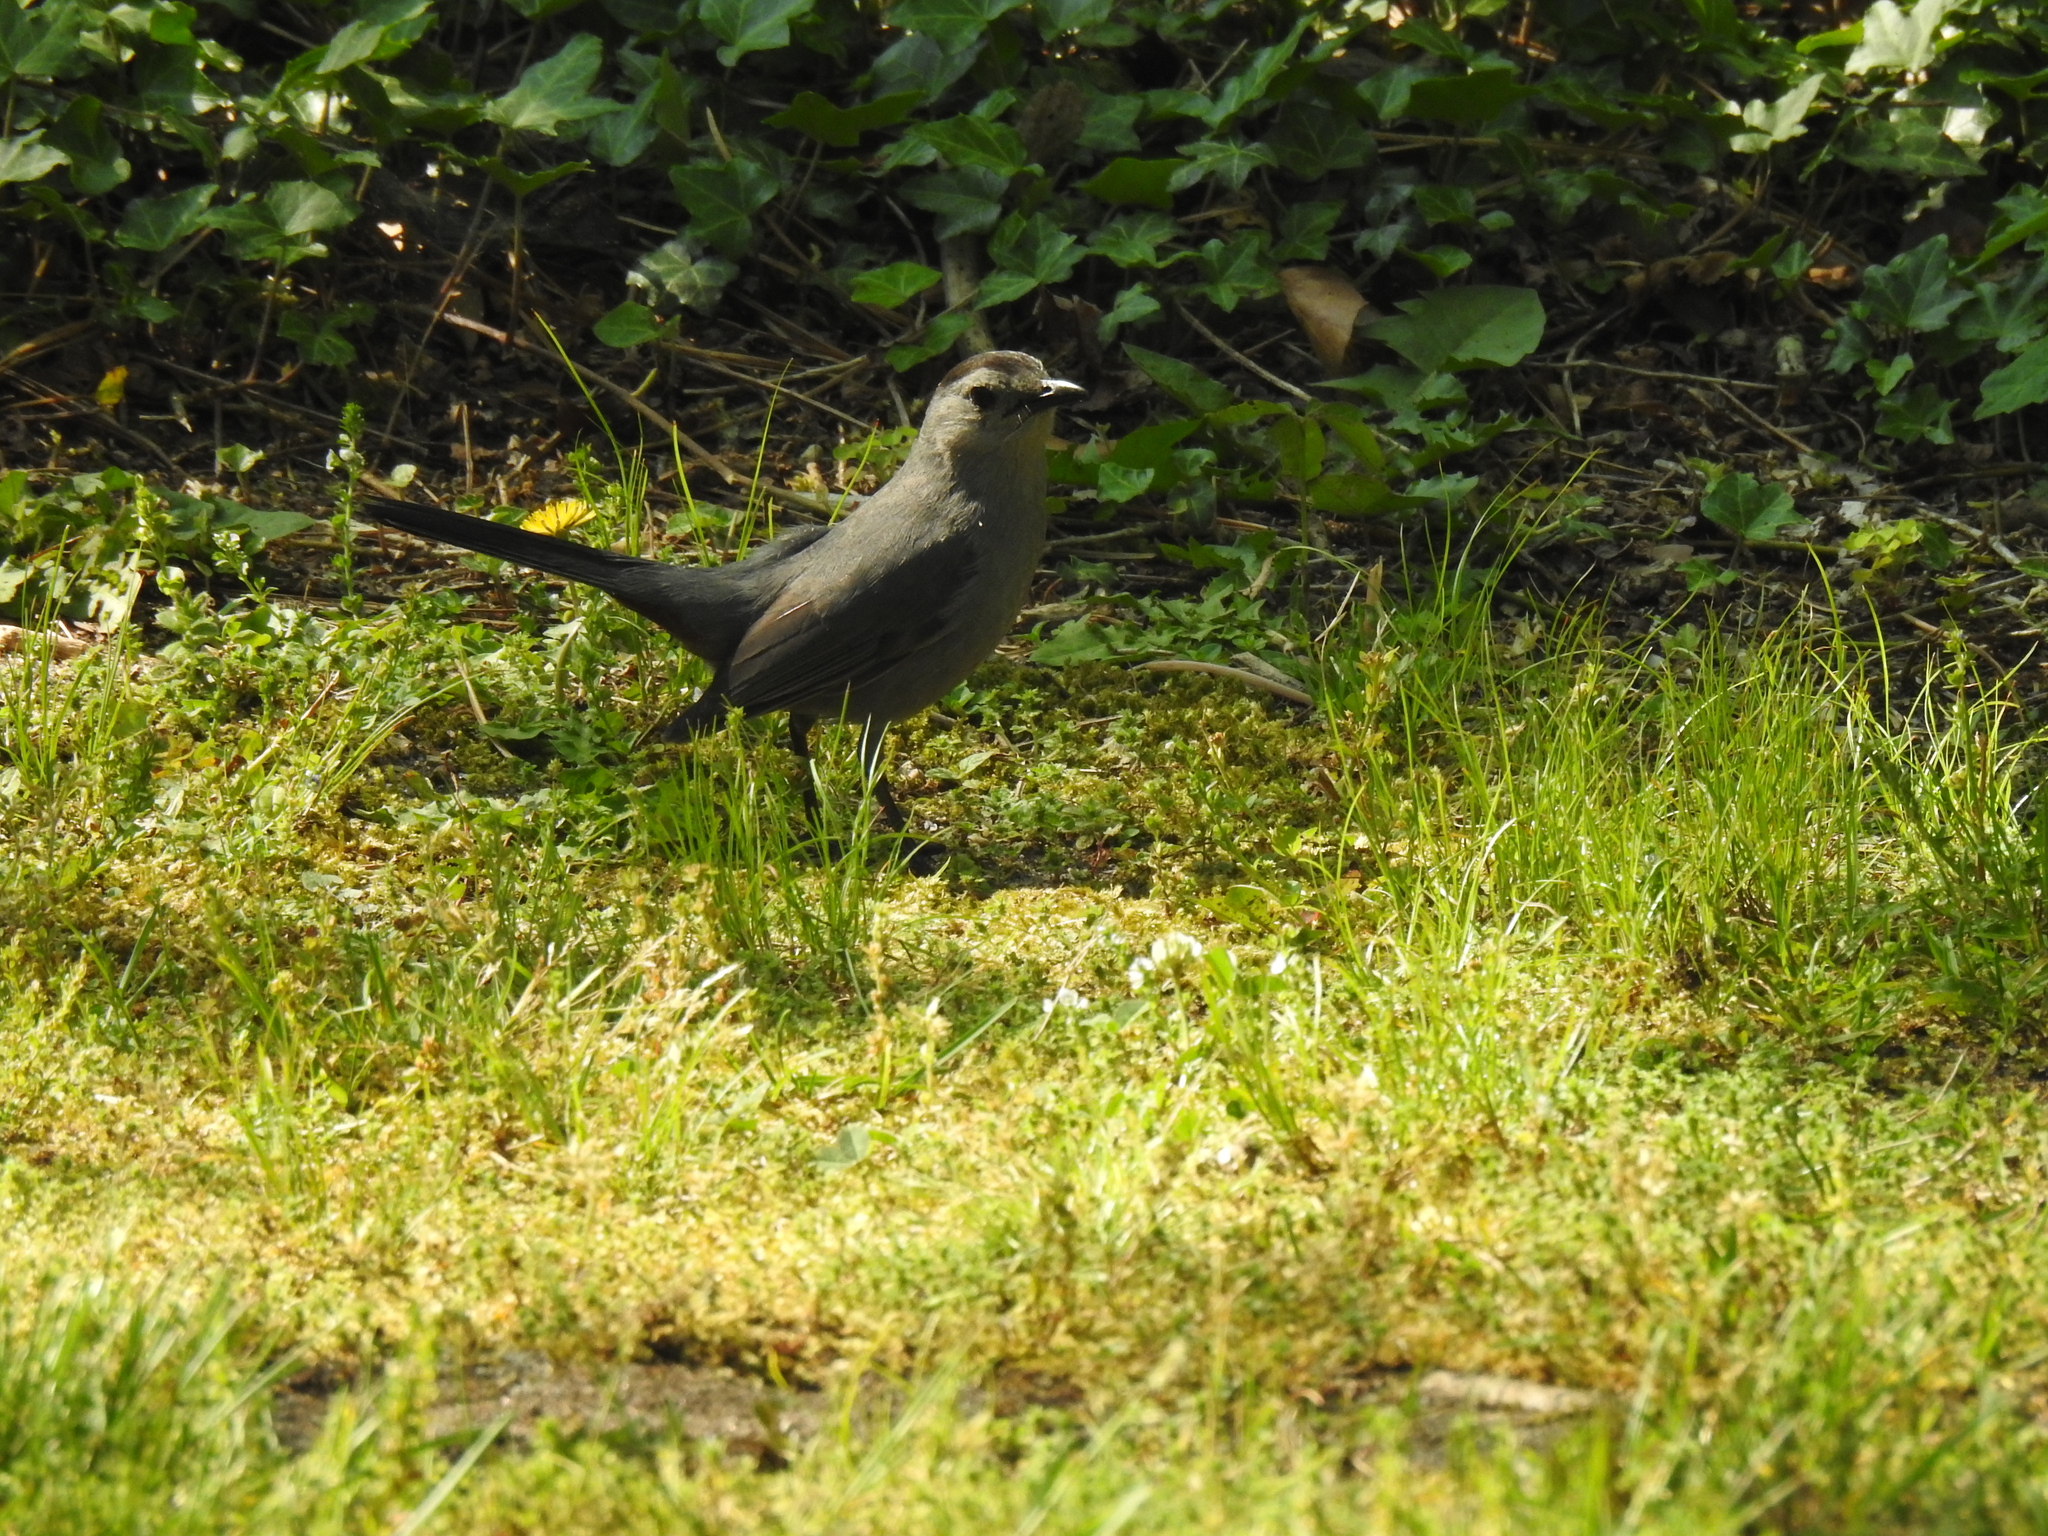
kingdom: Animalia
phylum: Chordata
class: Aves
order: Passeriformes
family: Mimidae
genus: Dumetella
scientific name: Dumetella carolinensis
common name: Gray catbird
